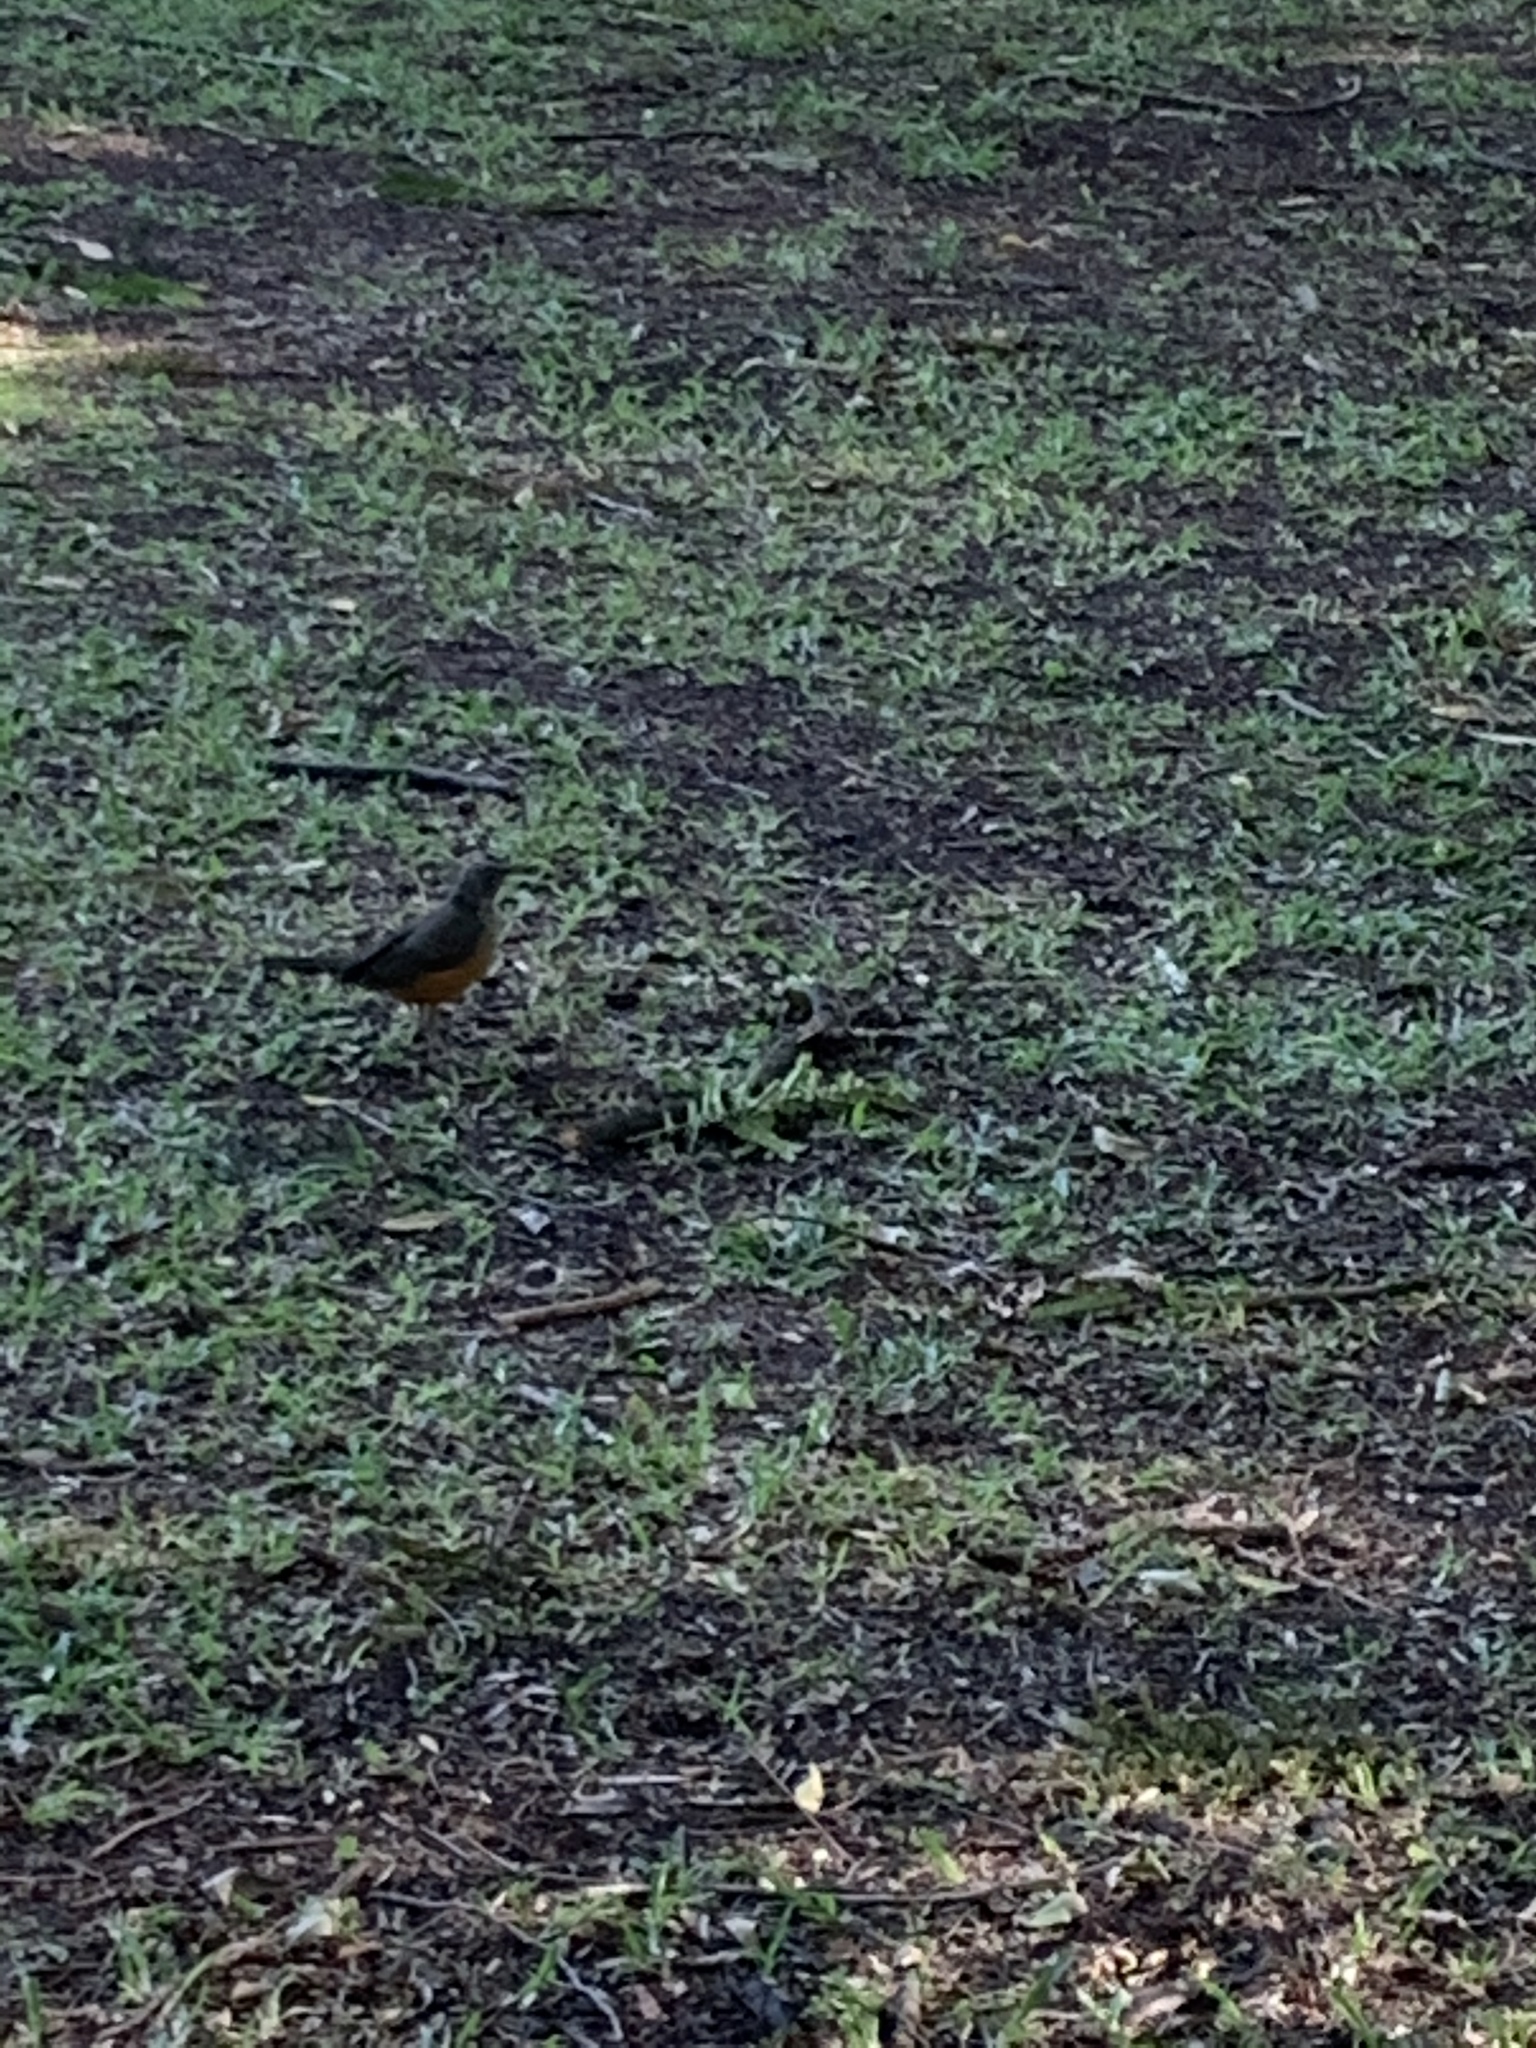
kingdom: Animalia
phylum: Chordata
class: Aves
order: Passeriformes
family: Turdidae
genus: Turdus
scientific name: Turdus rufiventris
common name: Rufous-bellied thrush
